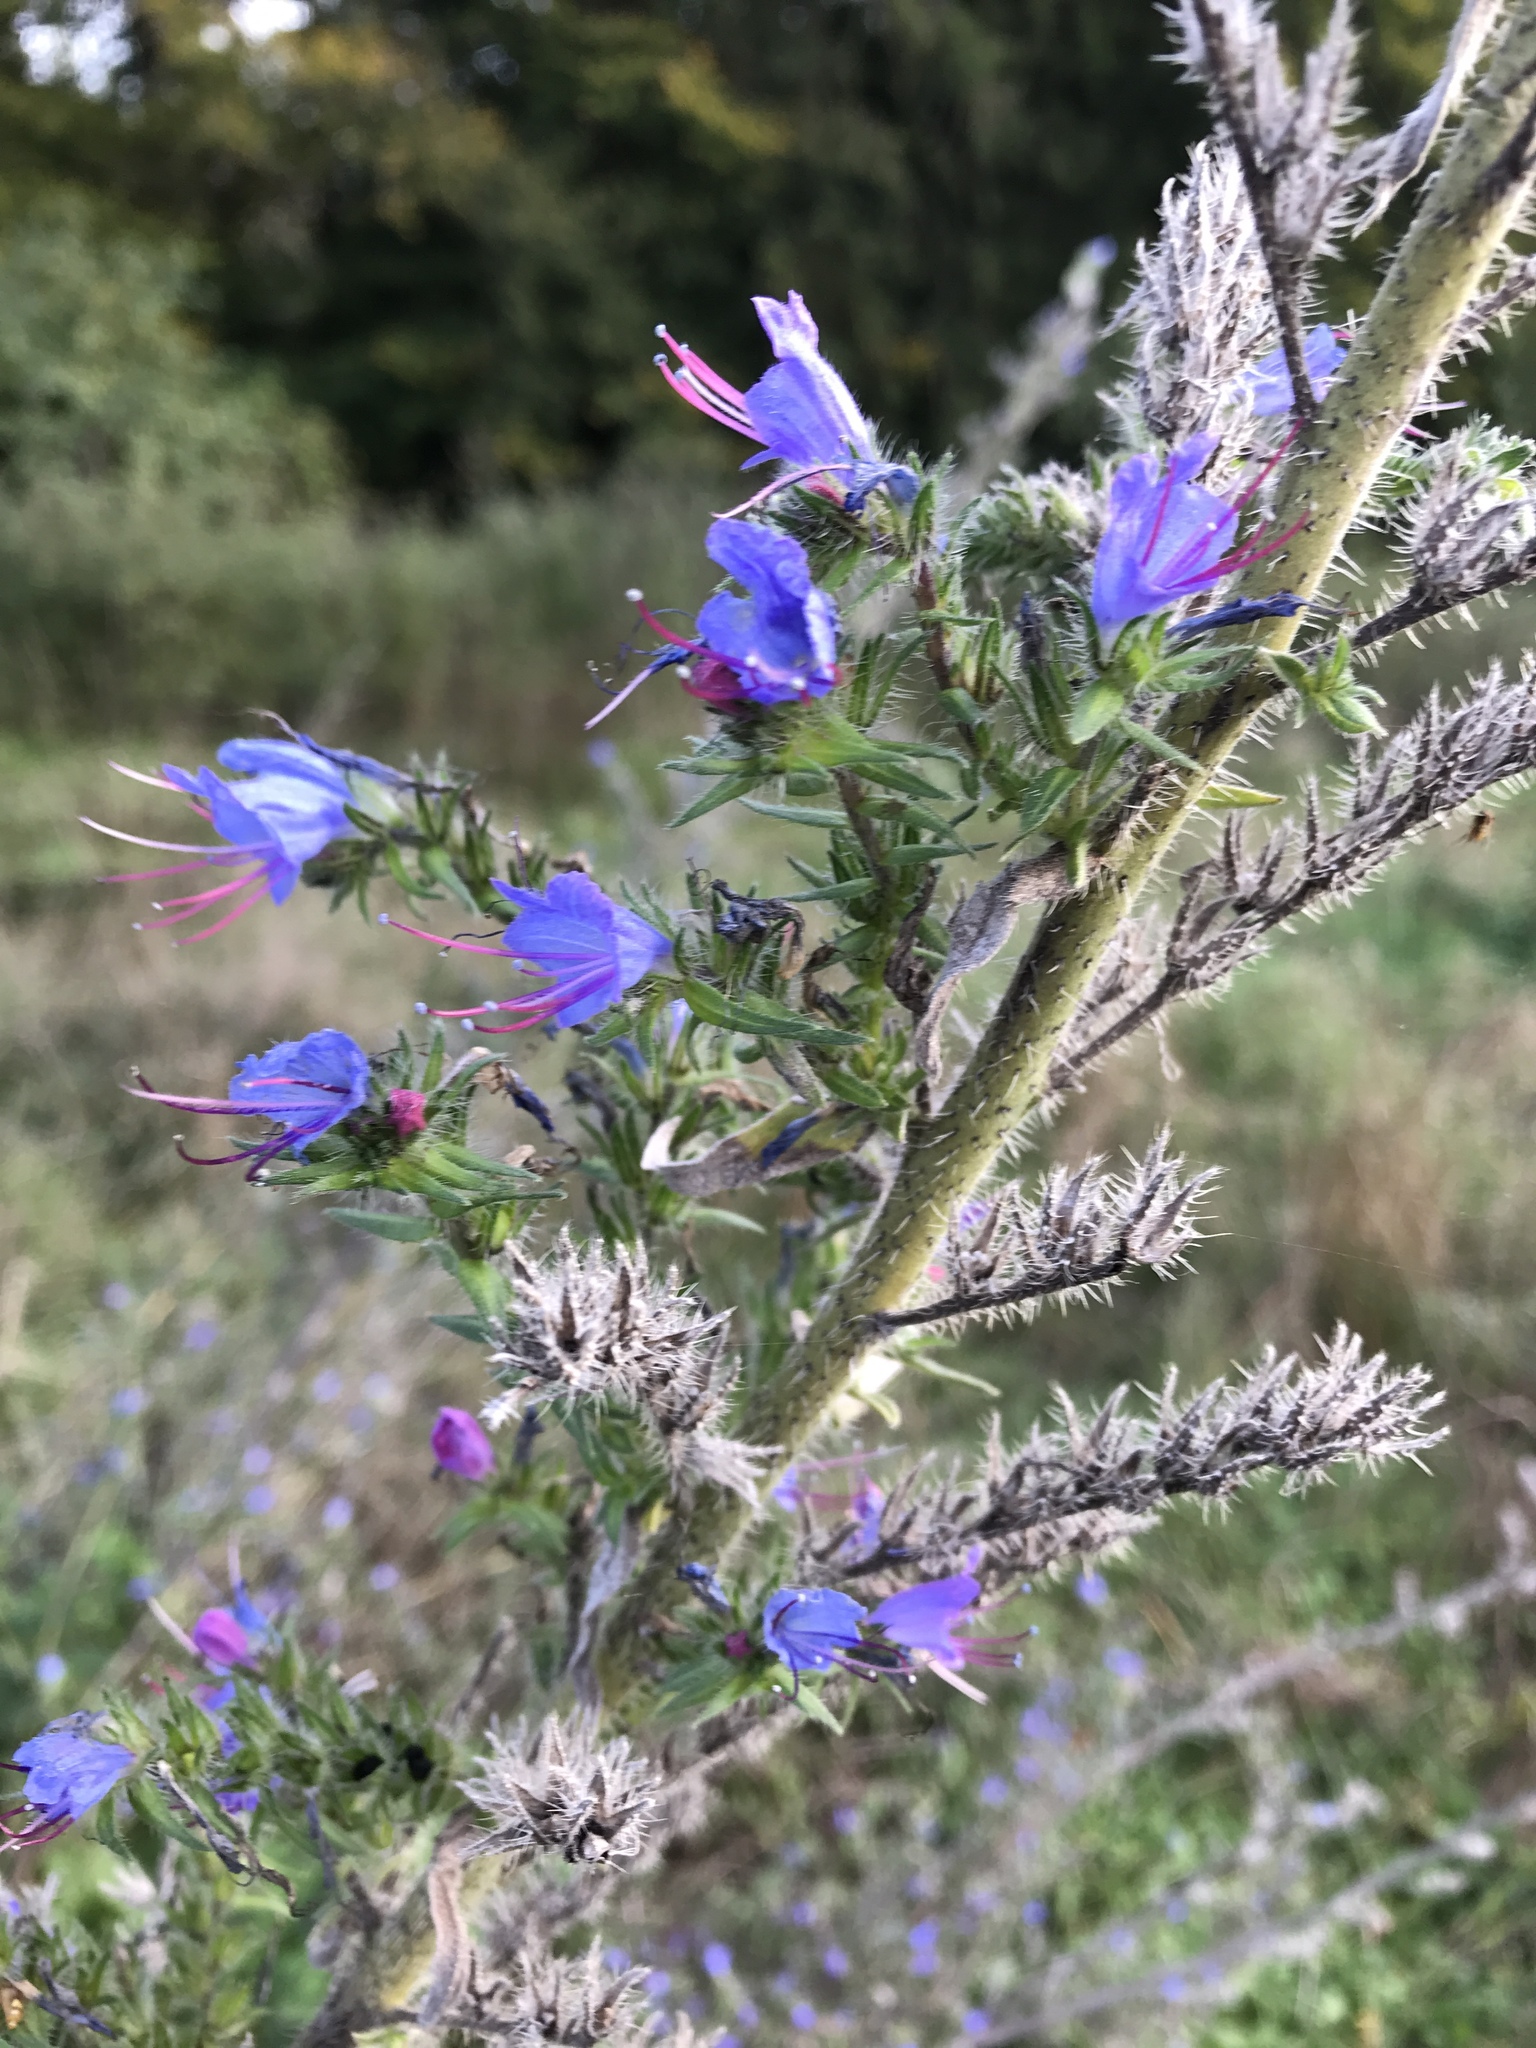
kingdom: Plantae
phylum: Tracheophyta
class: Magnoliopsida
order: Boraginales
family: Boraginaceae
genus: Echium
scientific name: Echium vulgare
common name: Common viper's bugloss
